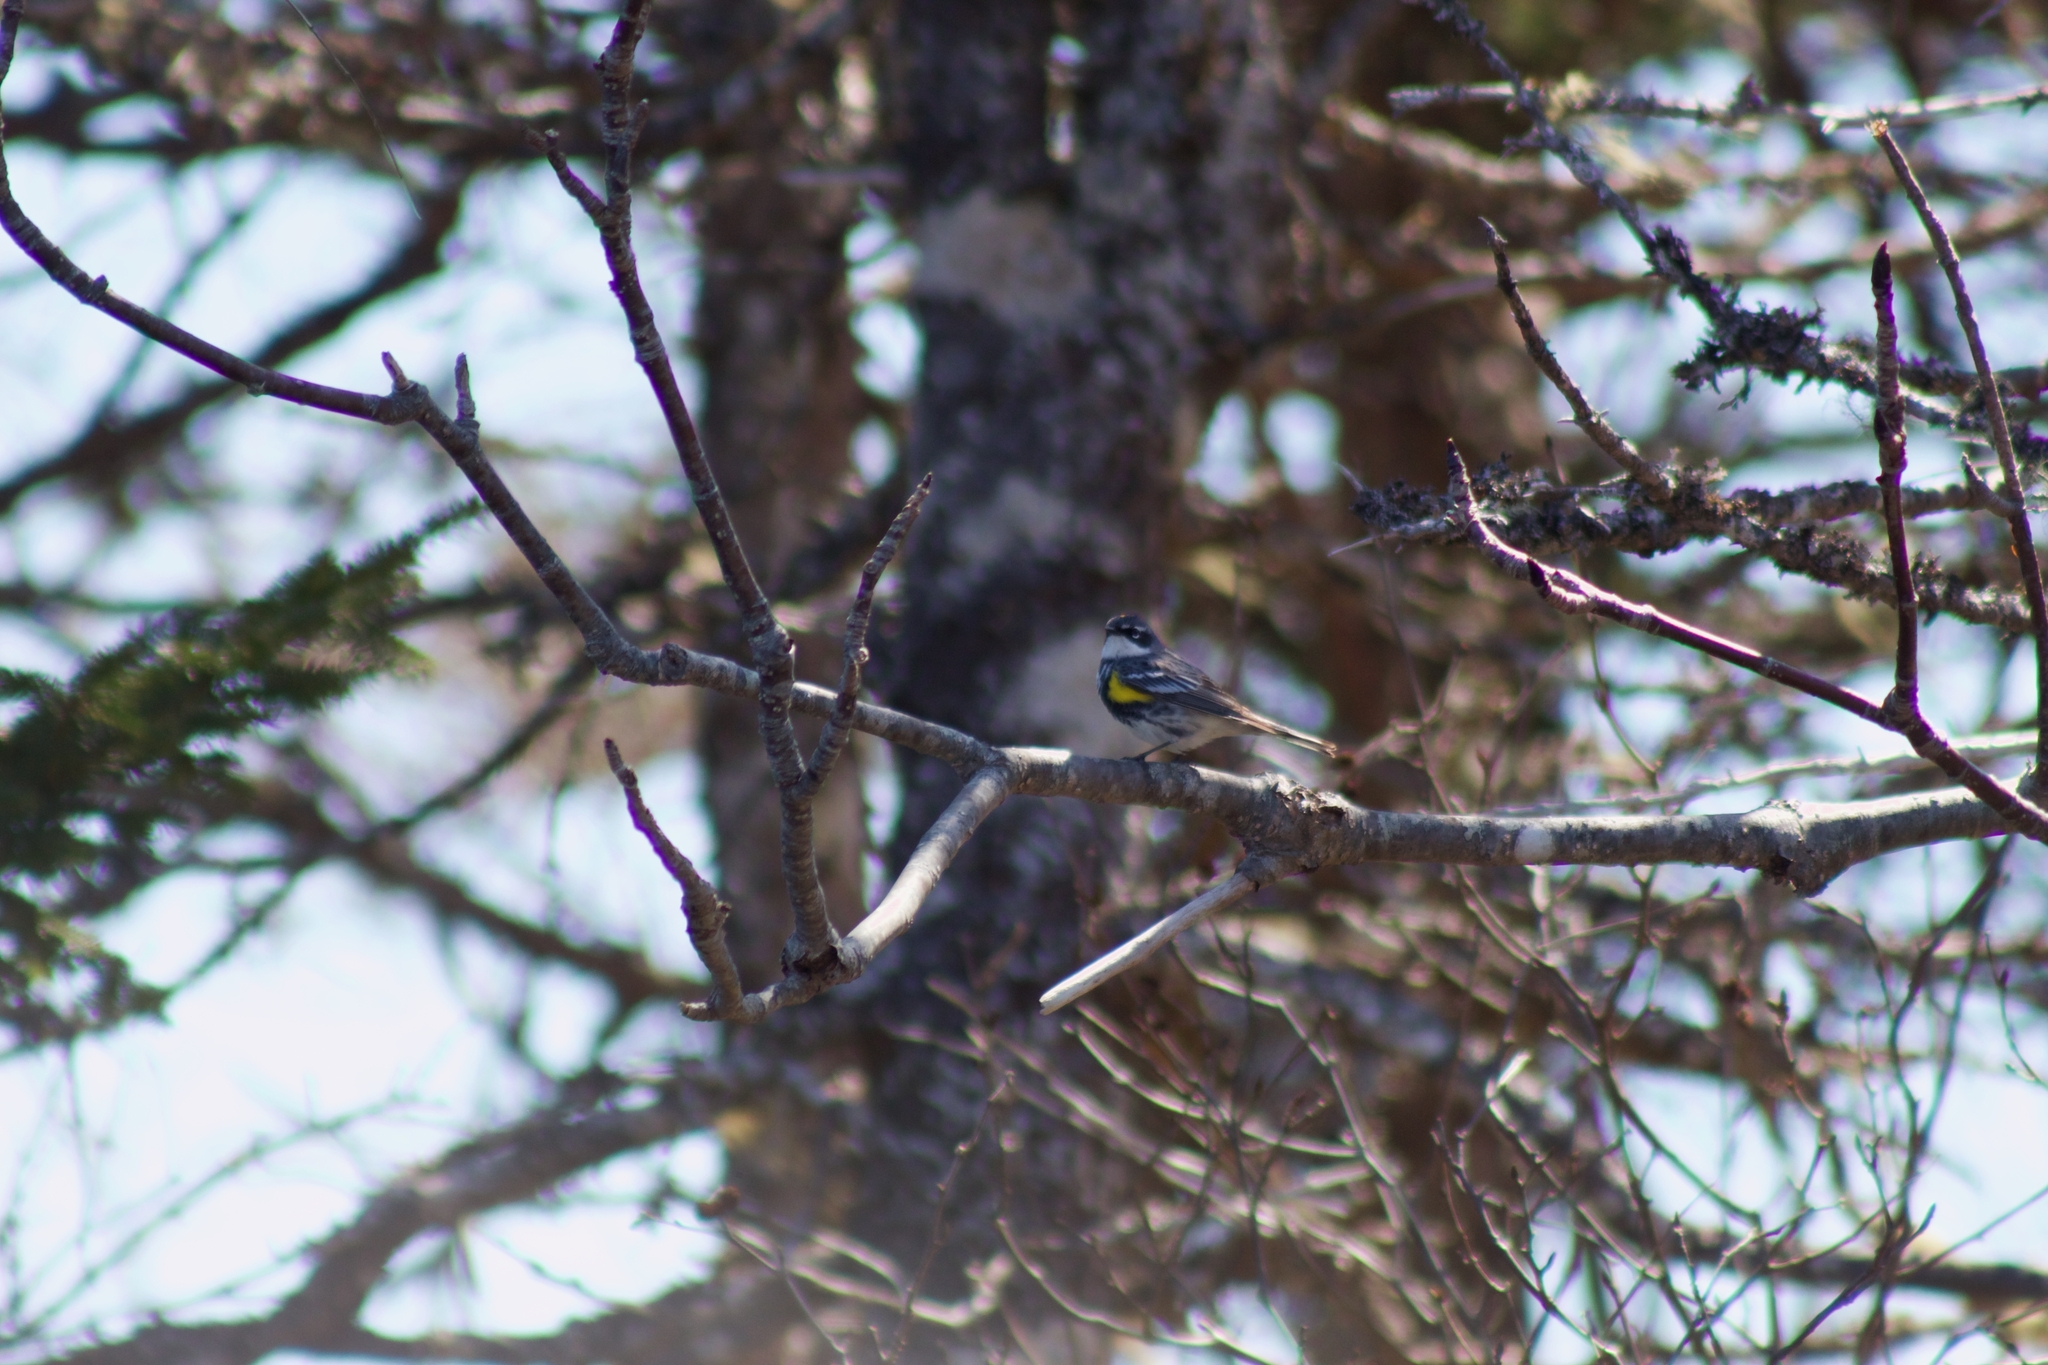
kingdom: Animalia
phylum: Chordata
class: Aves
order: Passeriformes
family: Parulidae
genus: Setophaga
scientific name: Setophaga coronata
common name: Myrtle warbler
